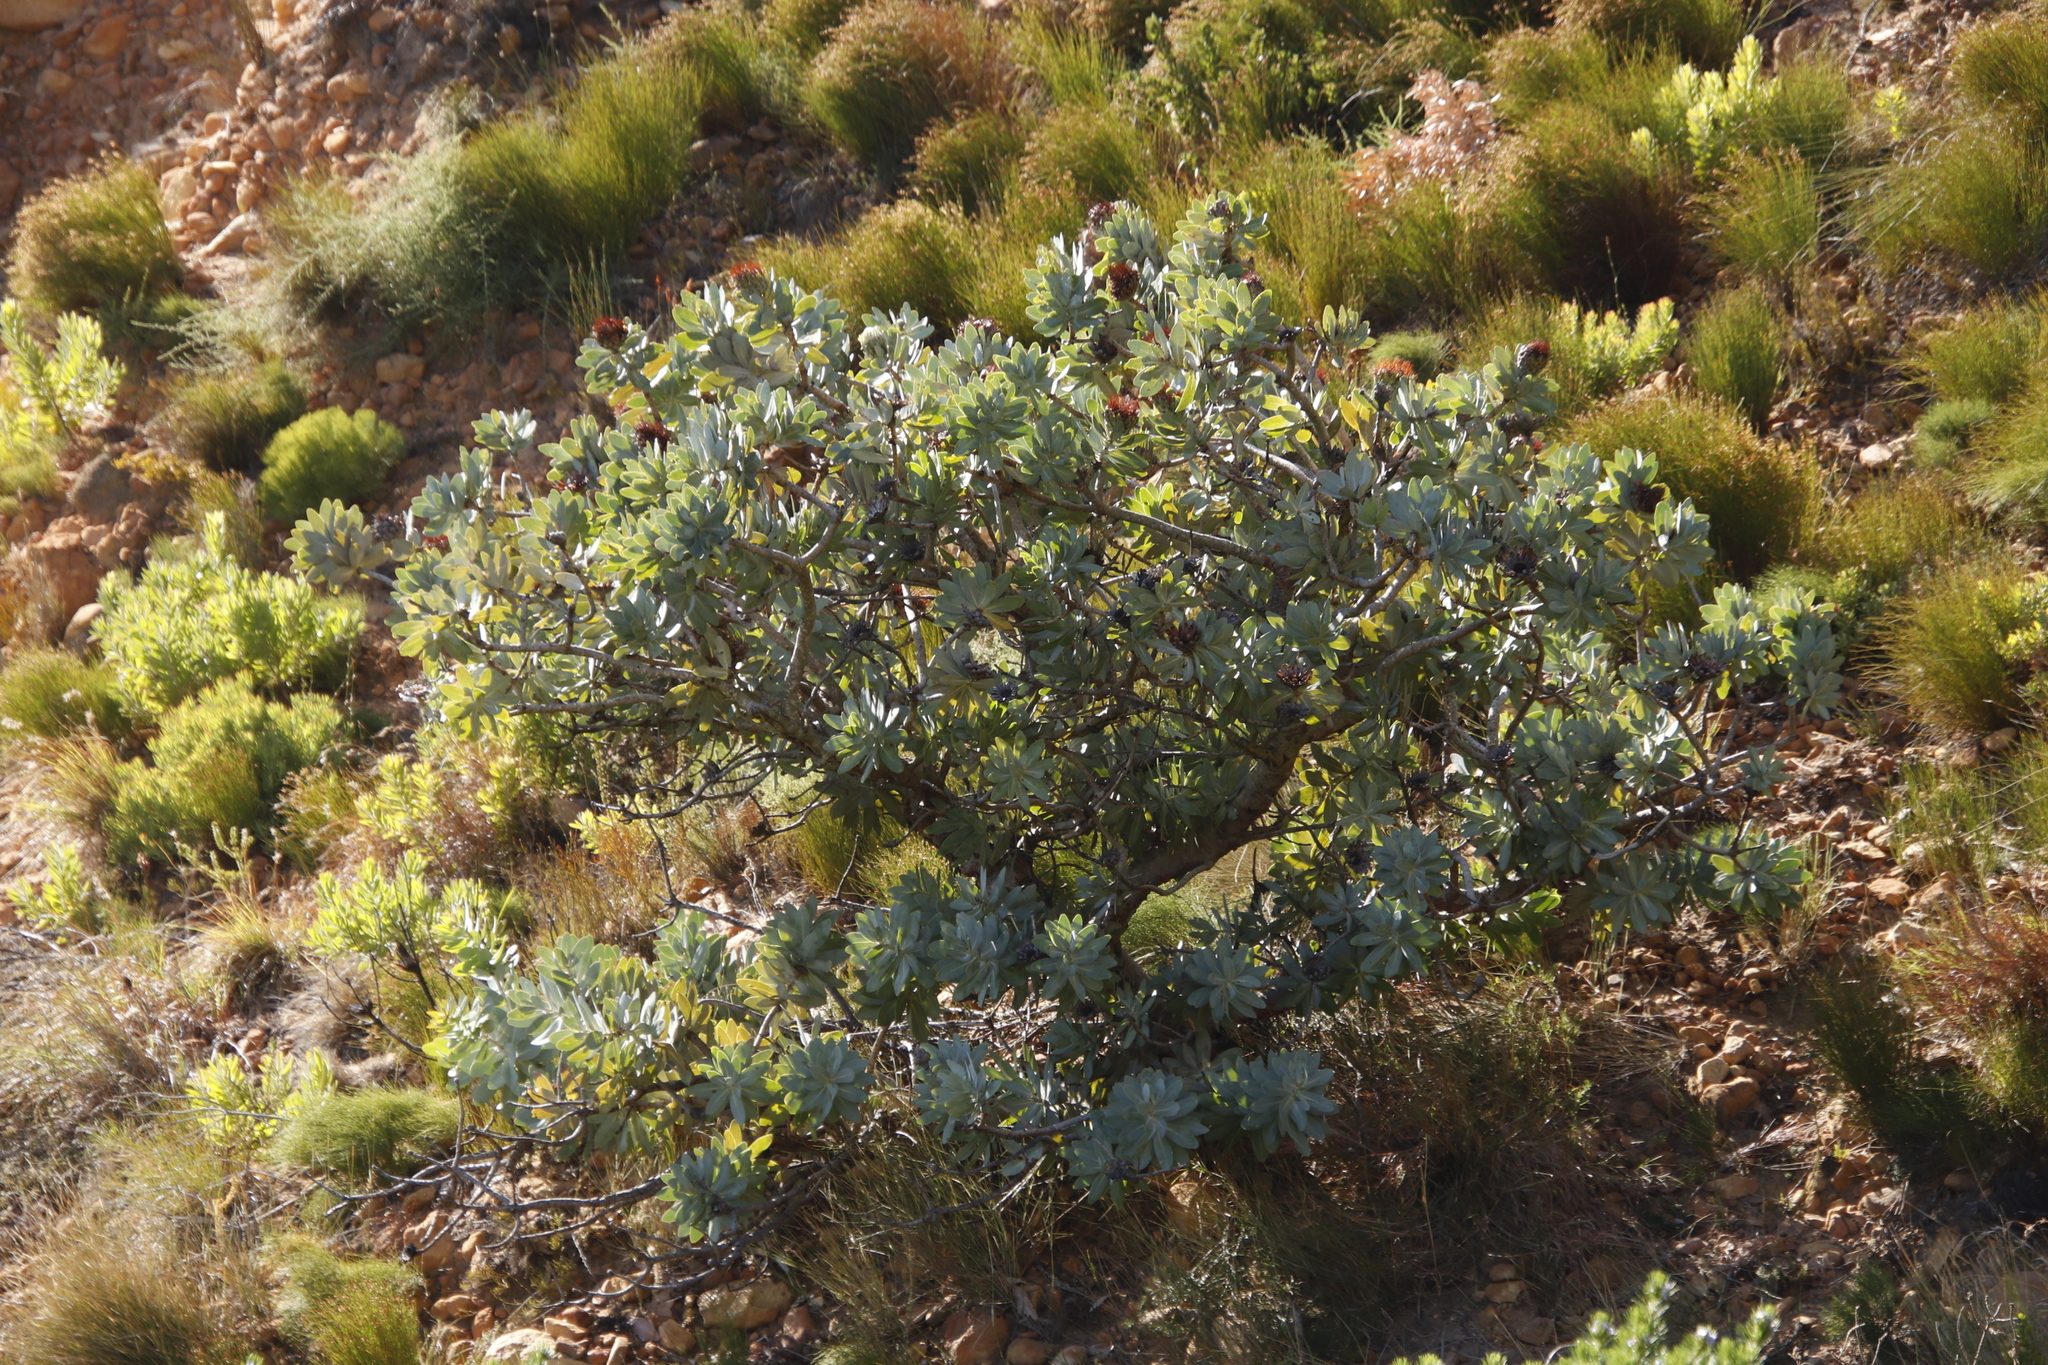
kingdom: Plantae
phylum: Tracheophyta
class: Magnoliopsida
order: Proteales
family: Proteaceae
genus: Protea
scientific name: Protea nitida
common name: Tree protea
